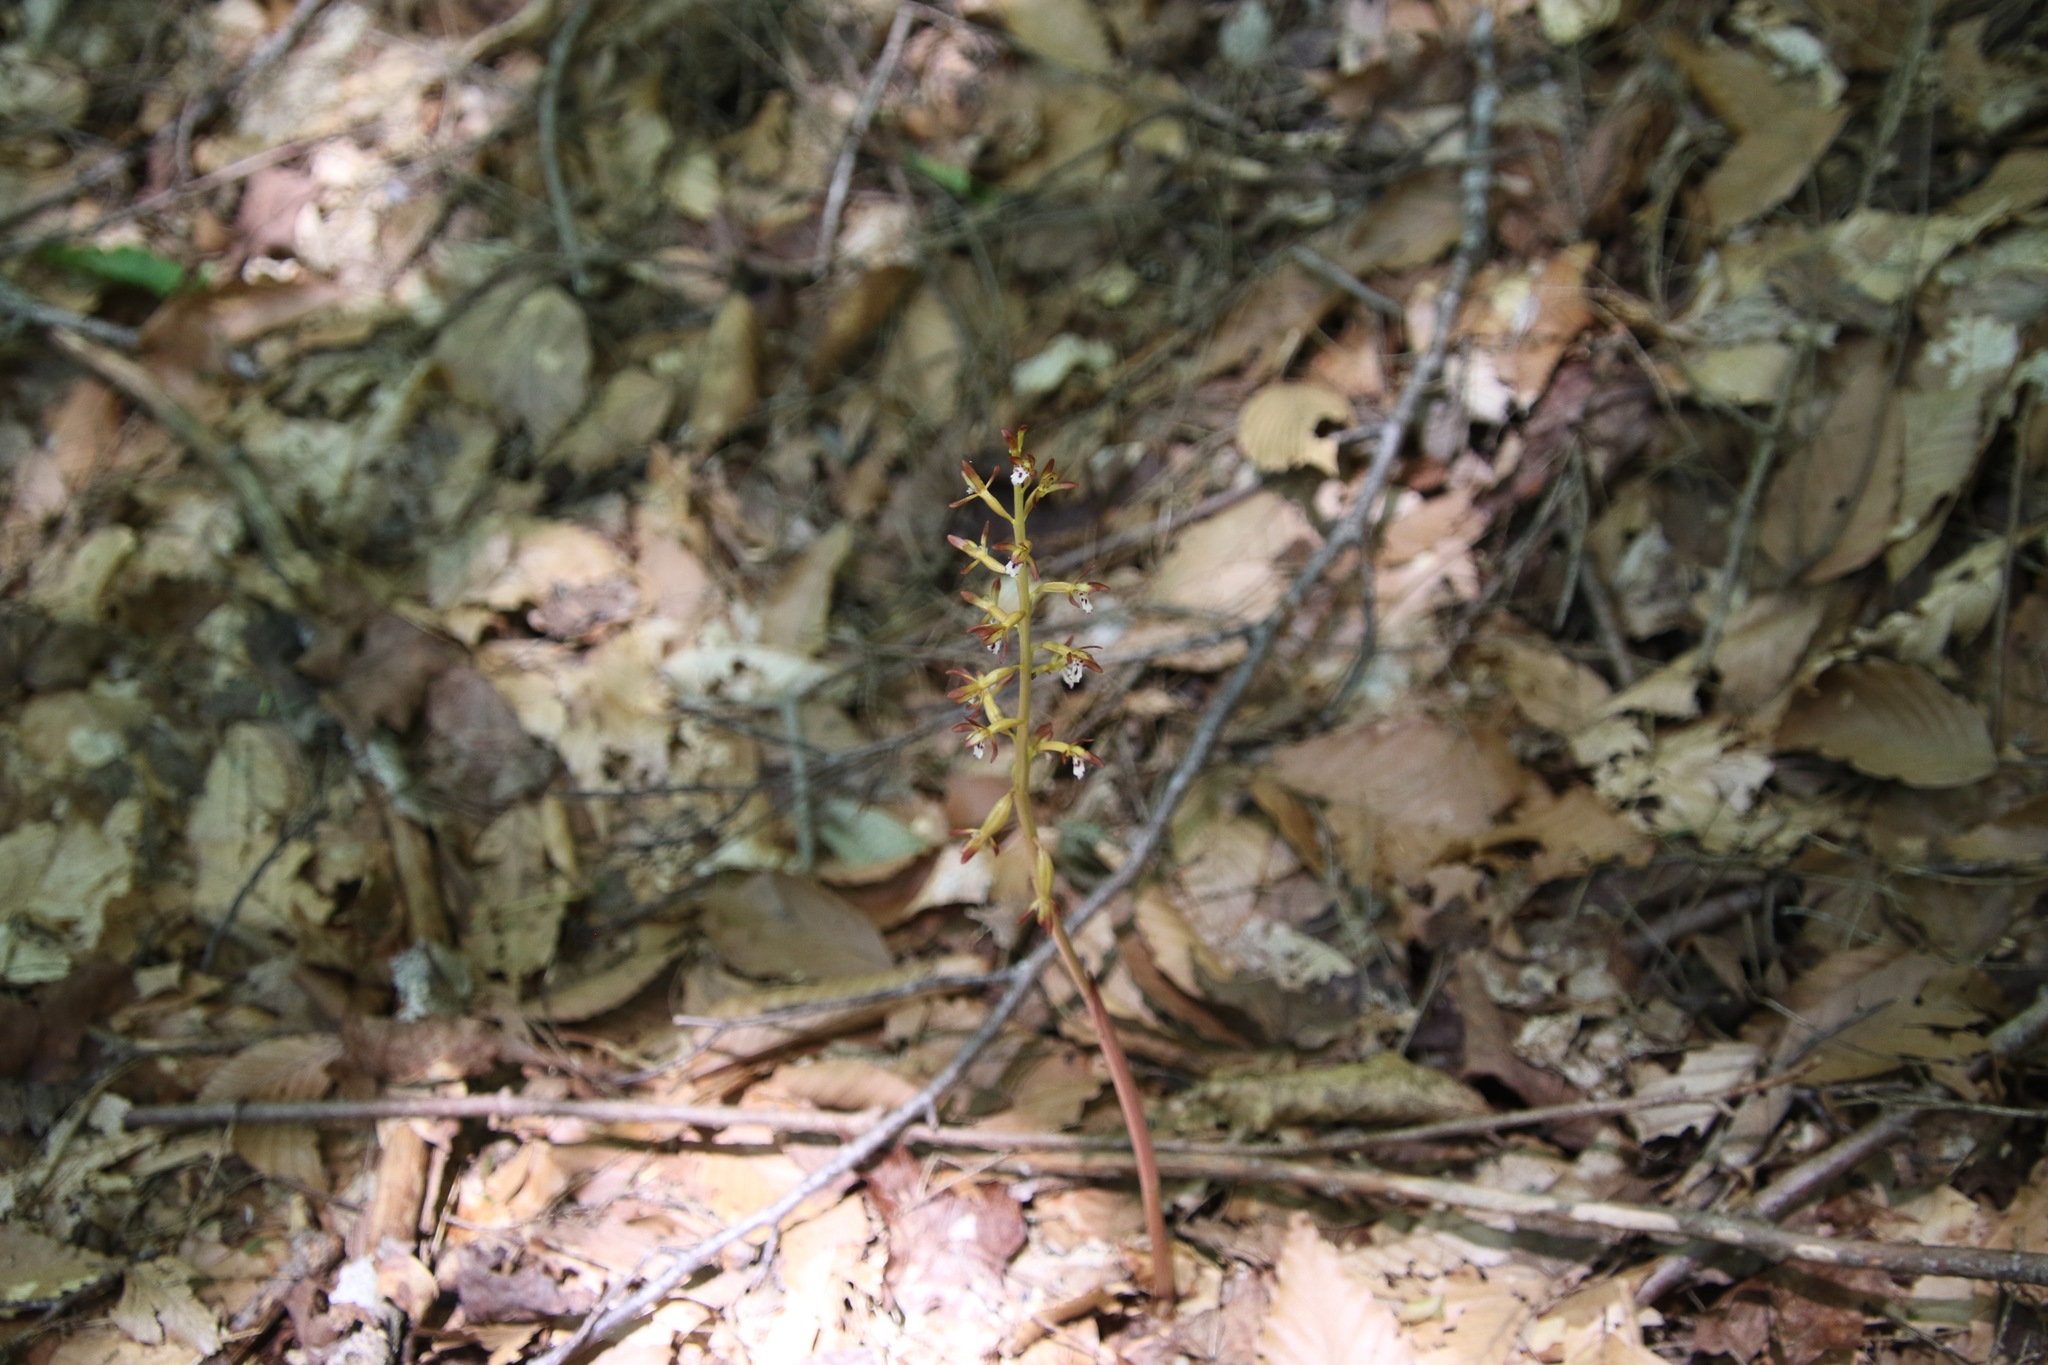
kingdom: Plantae
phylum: Tracheophyta
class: Liliopsida
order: Asparagales
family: Orchidaceae
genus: Corallorhiza
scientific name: Corallorhiza maculata
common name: Spotted coralroot
